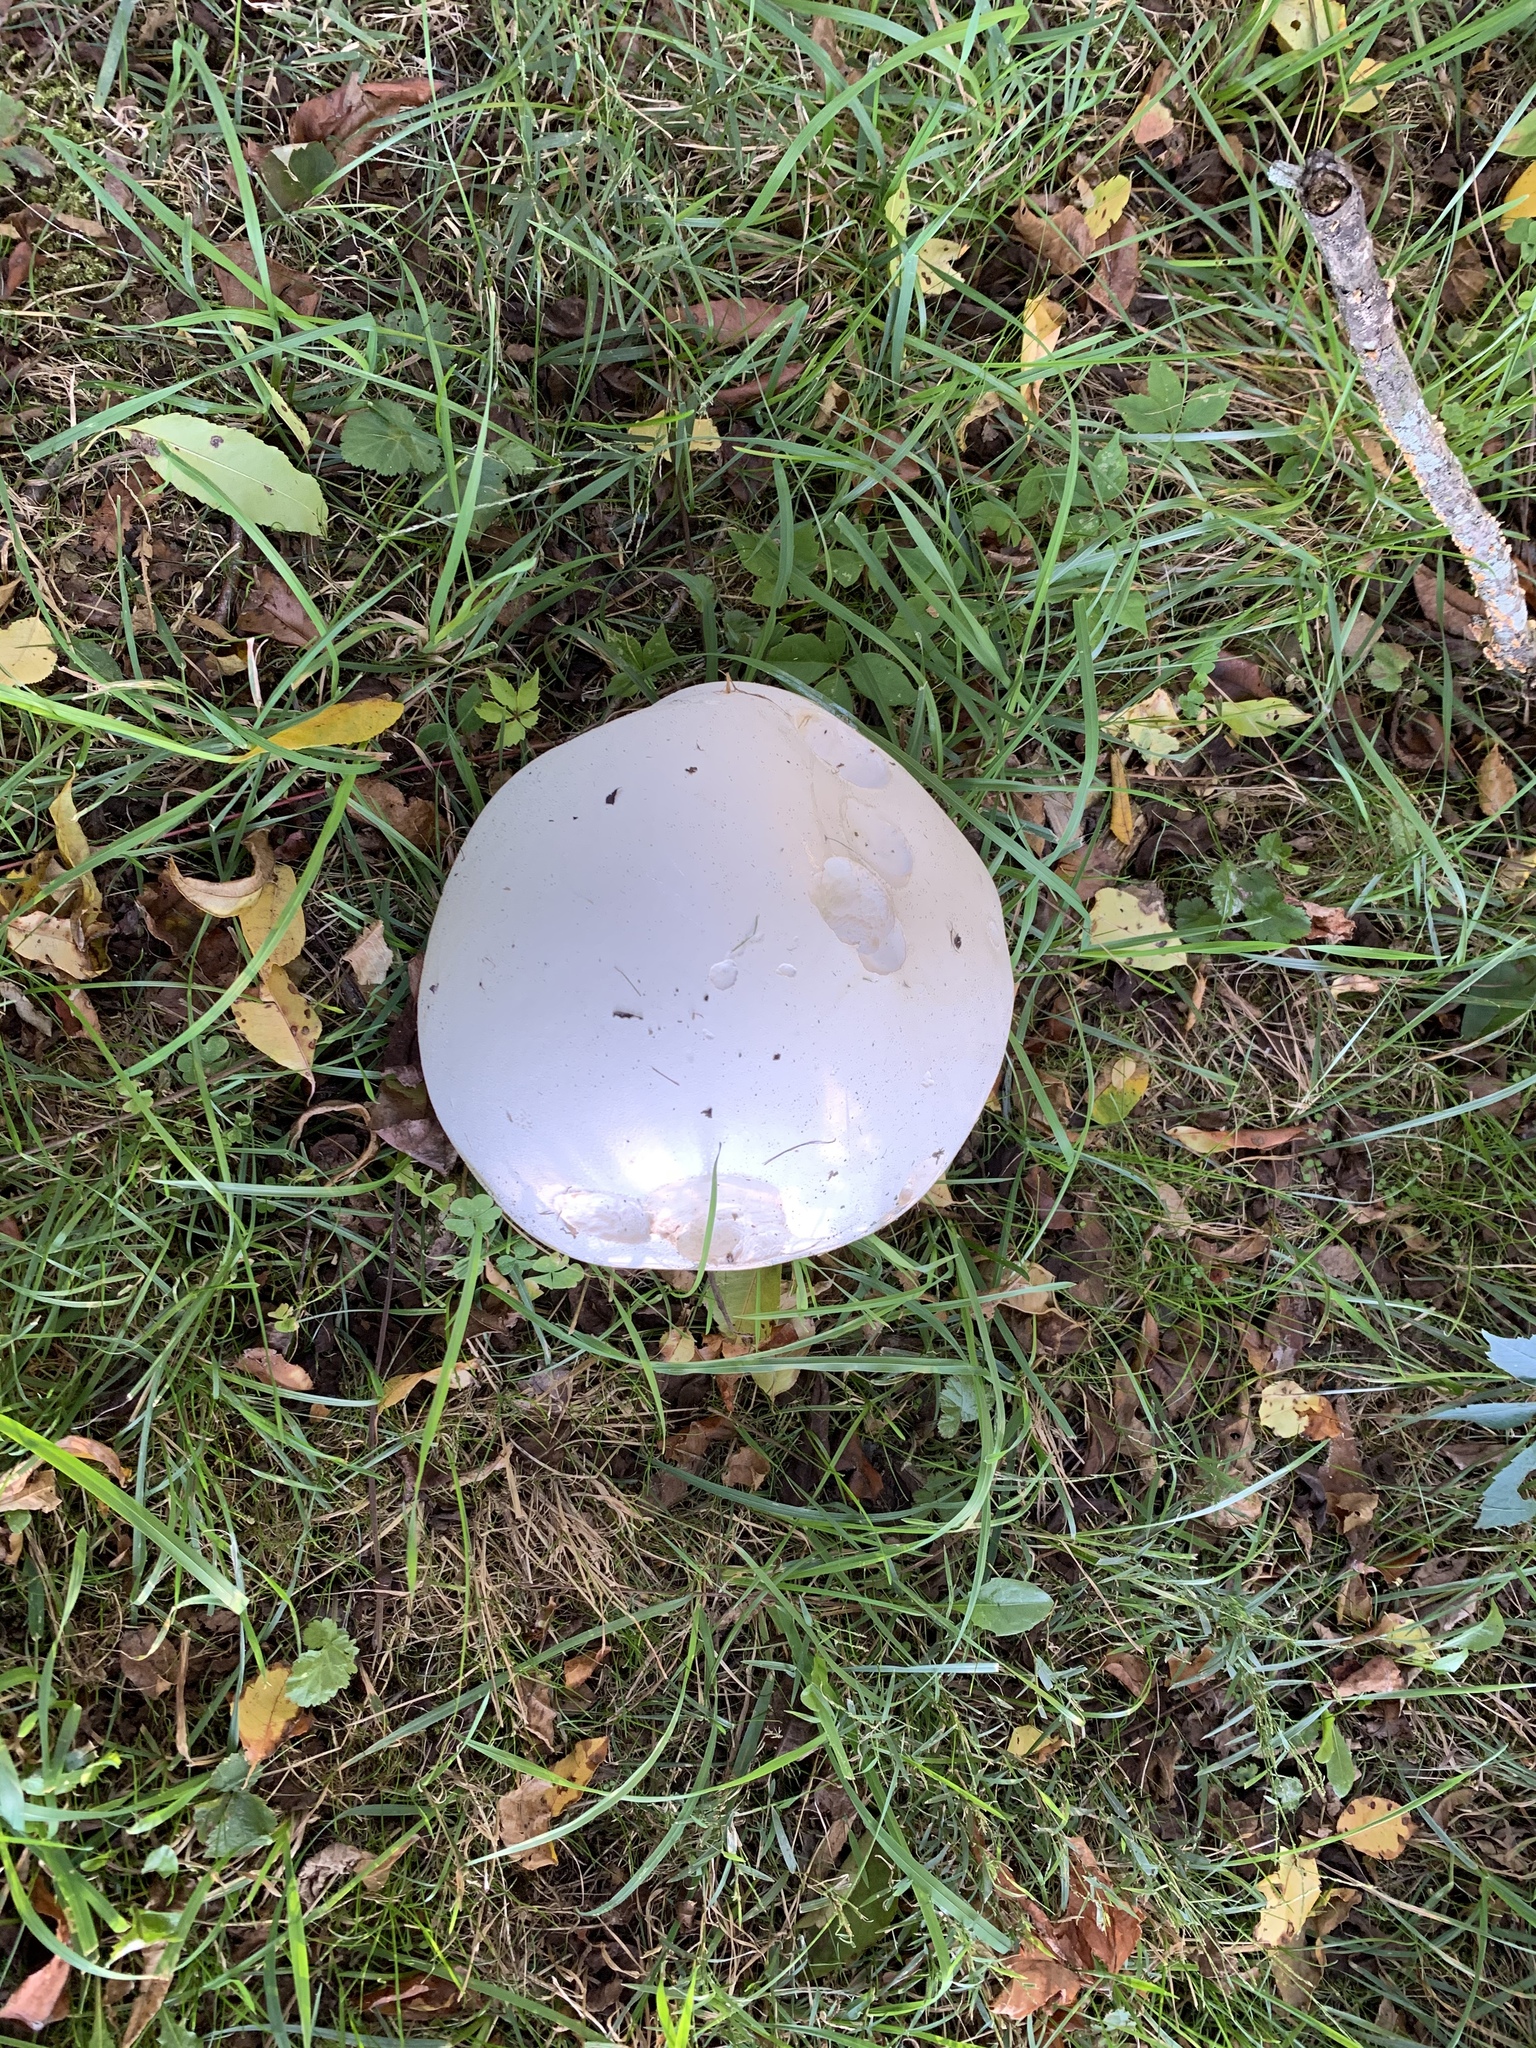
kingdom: Fungi
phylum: Basidiomycota
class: Agaricomycetes
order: Agaricales
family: Lycoperdaceae
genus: Calvatia
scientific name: Calvatia gigantea
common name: Giant puffball
